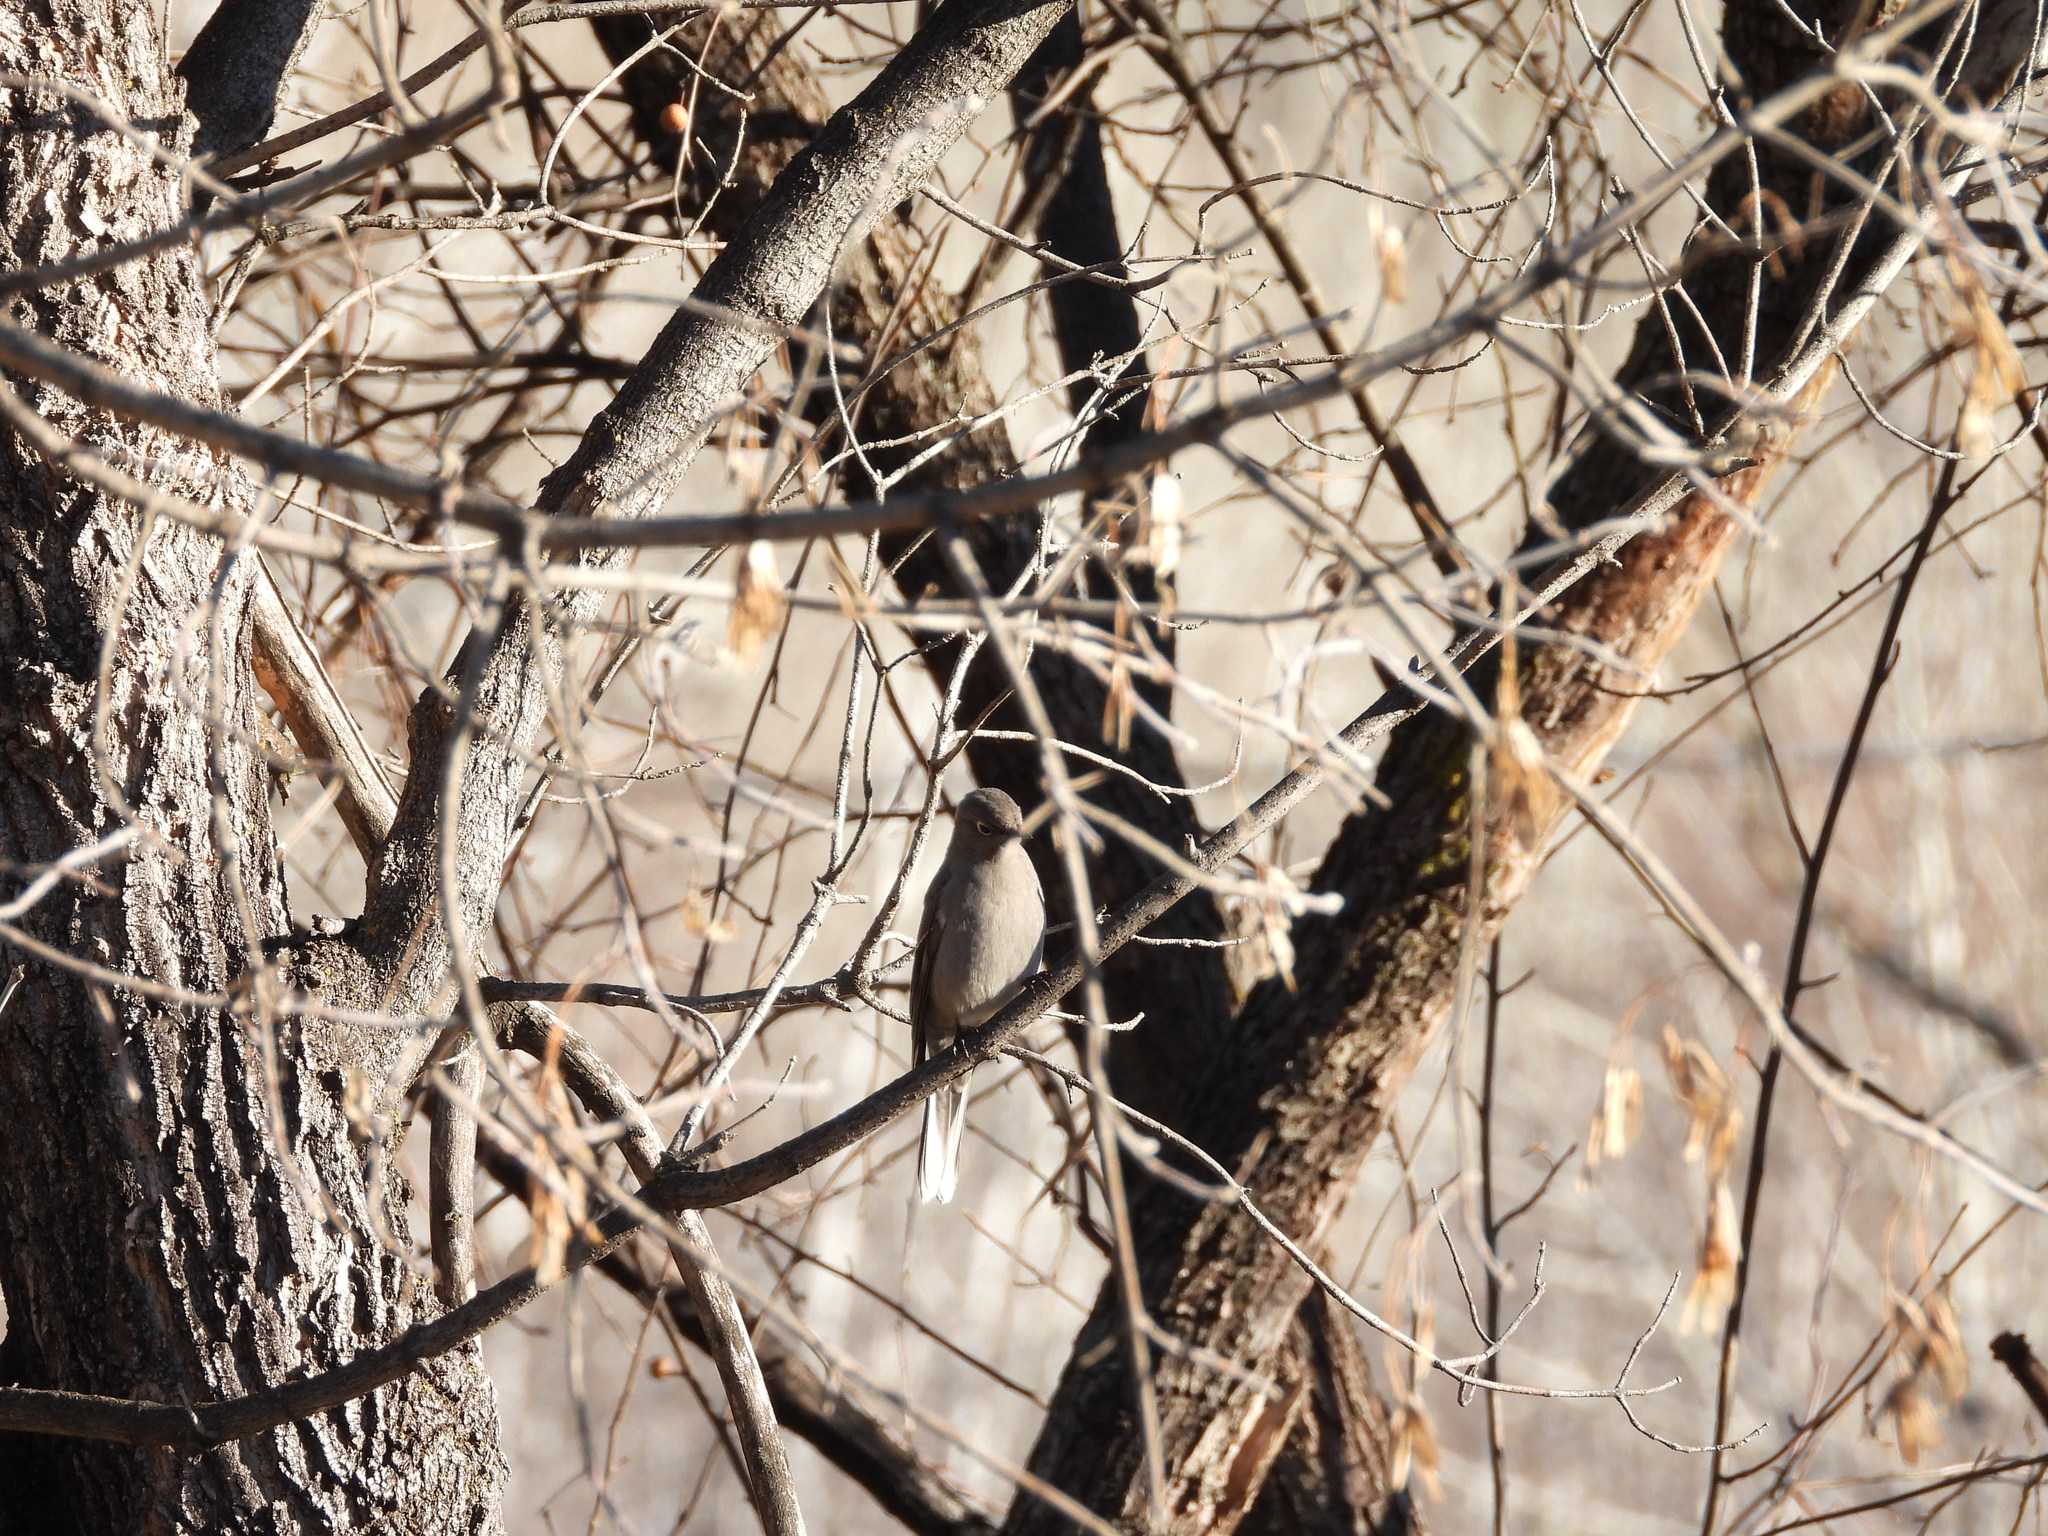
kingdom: Animalia
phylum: Chordata
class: Aves
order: Passeriformes
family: Turdidae
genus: Myadestes
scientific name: Myadestes townsendi
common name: Townsend's solitaire
